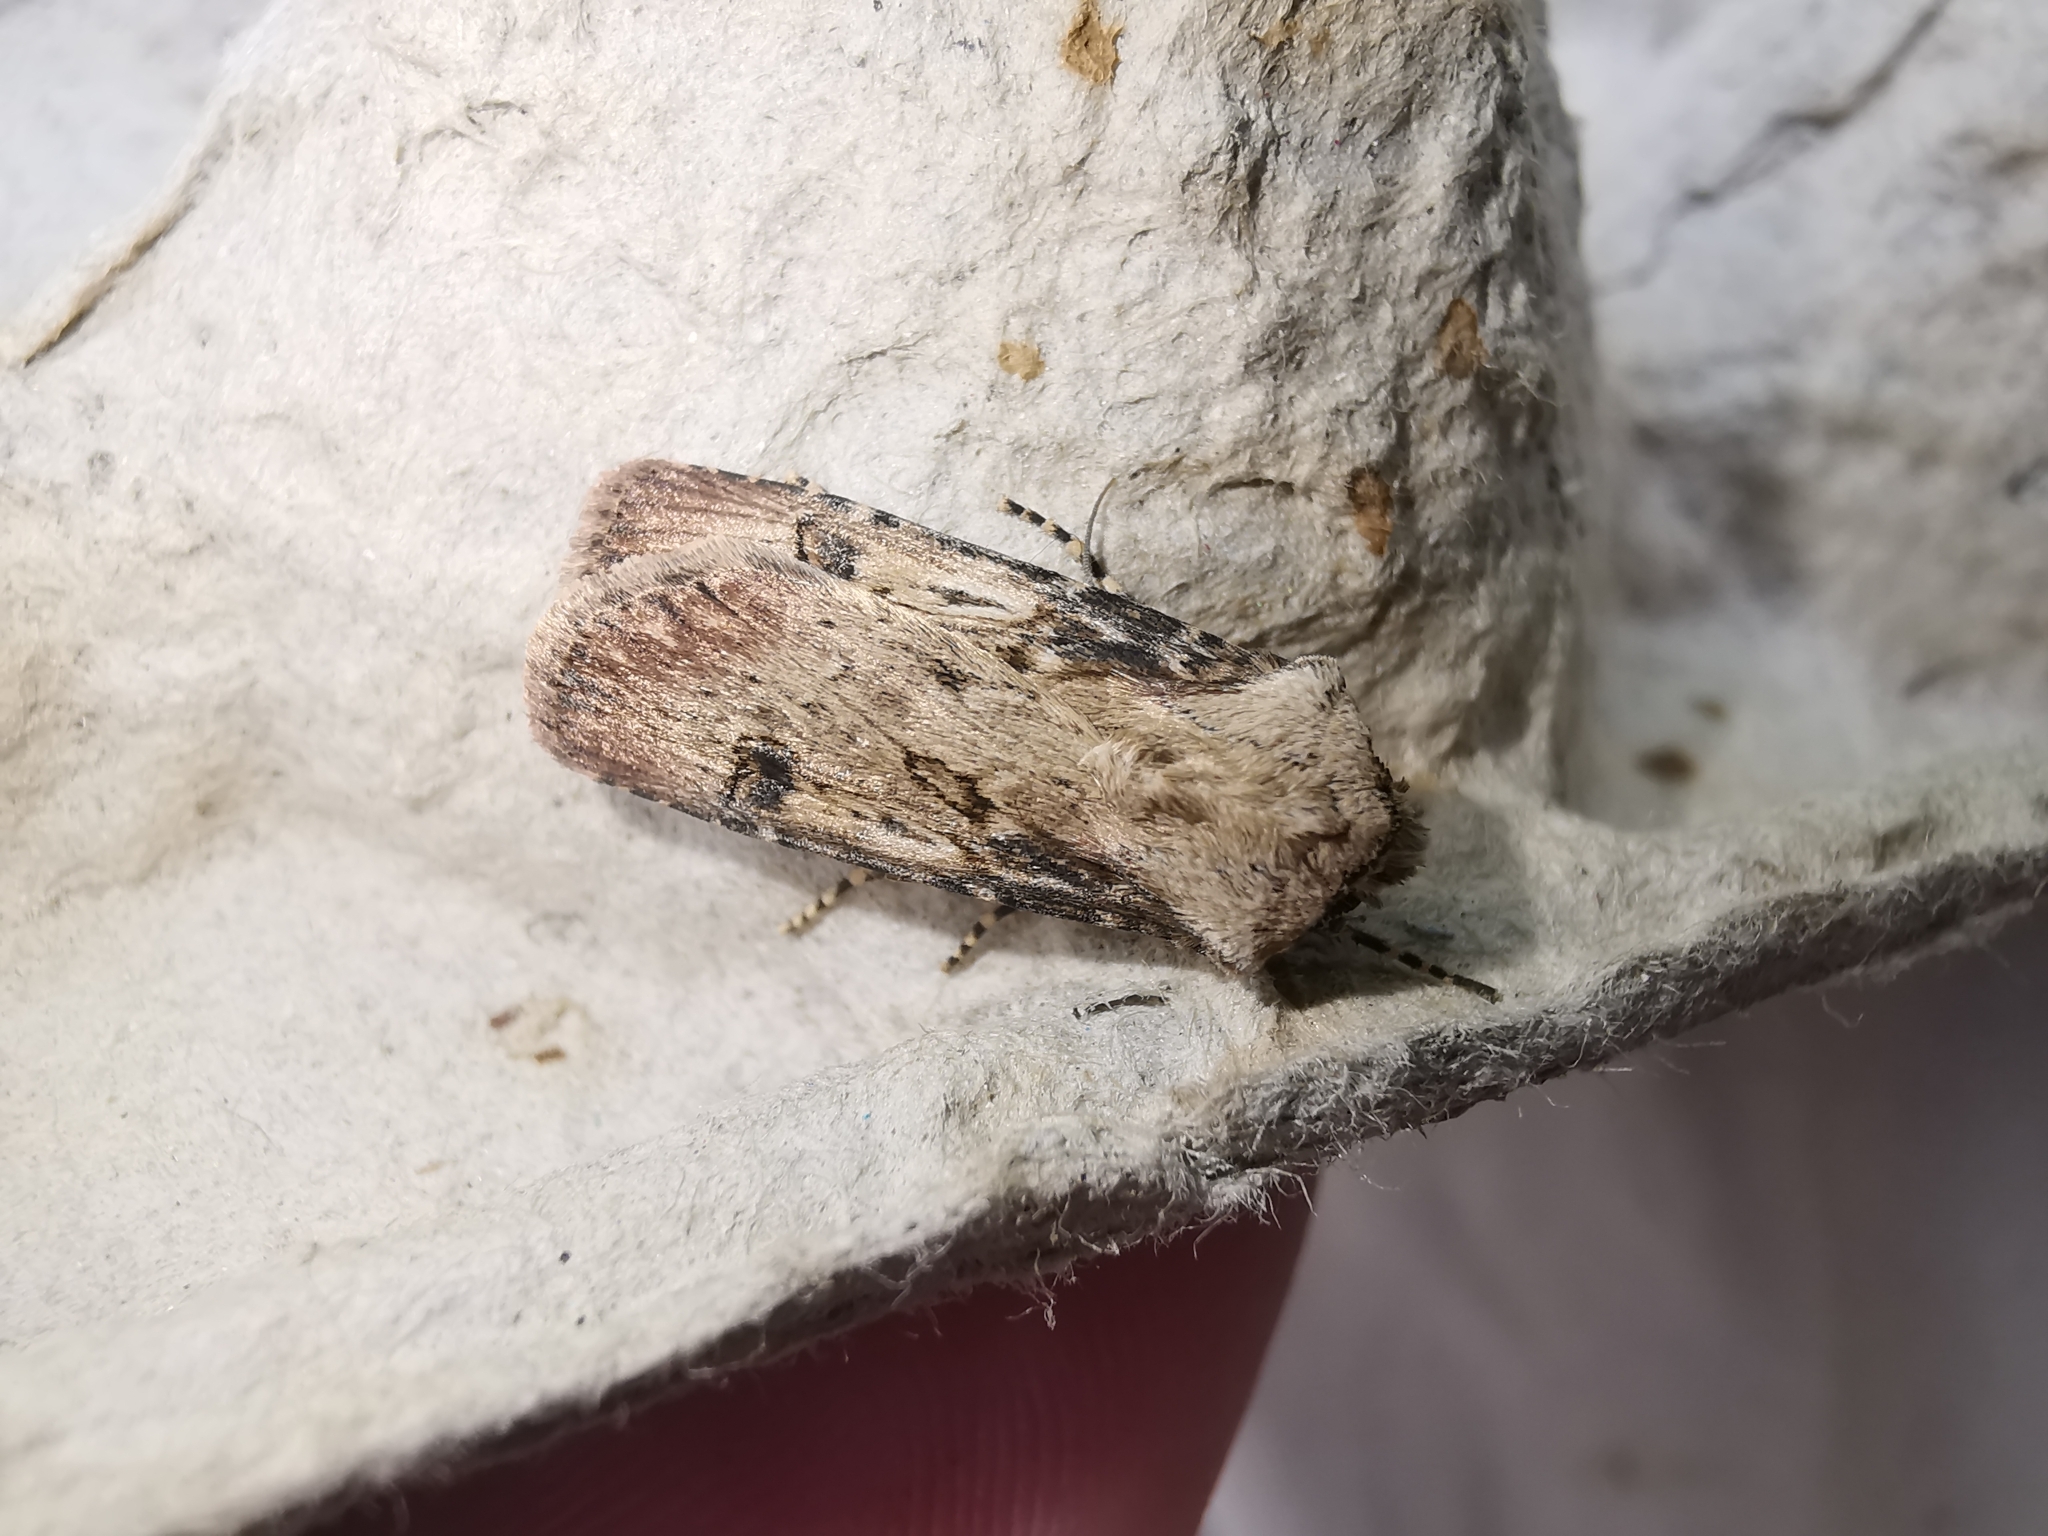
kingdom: Animalia
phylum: Arthropoda
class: Insecta
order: Lepidoptera
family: Noctuidae
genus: Agrotis
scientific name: Agrotis puta
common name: Shuttle-shaped dart
